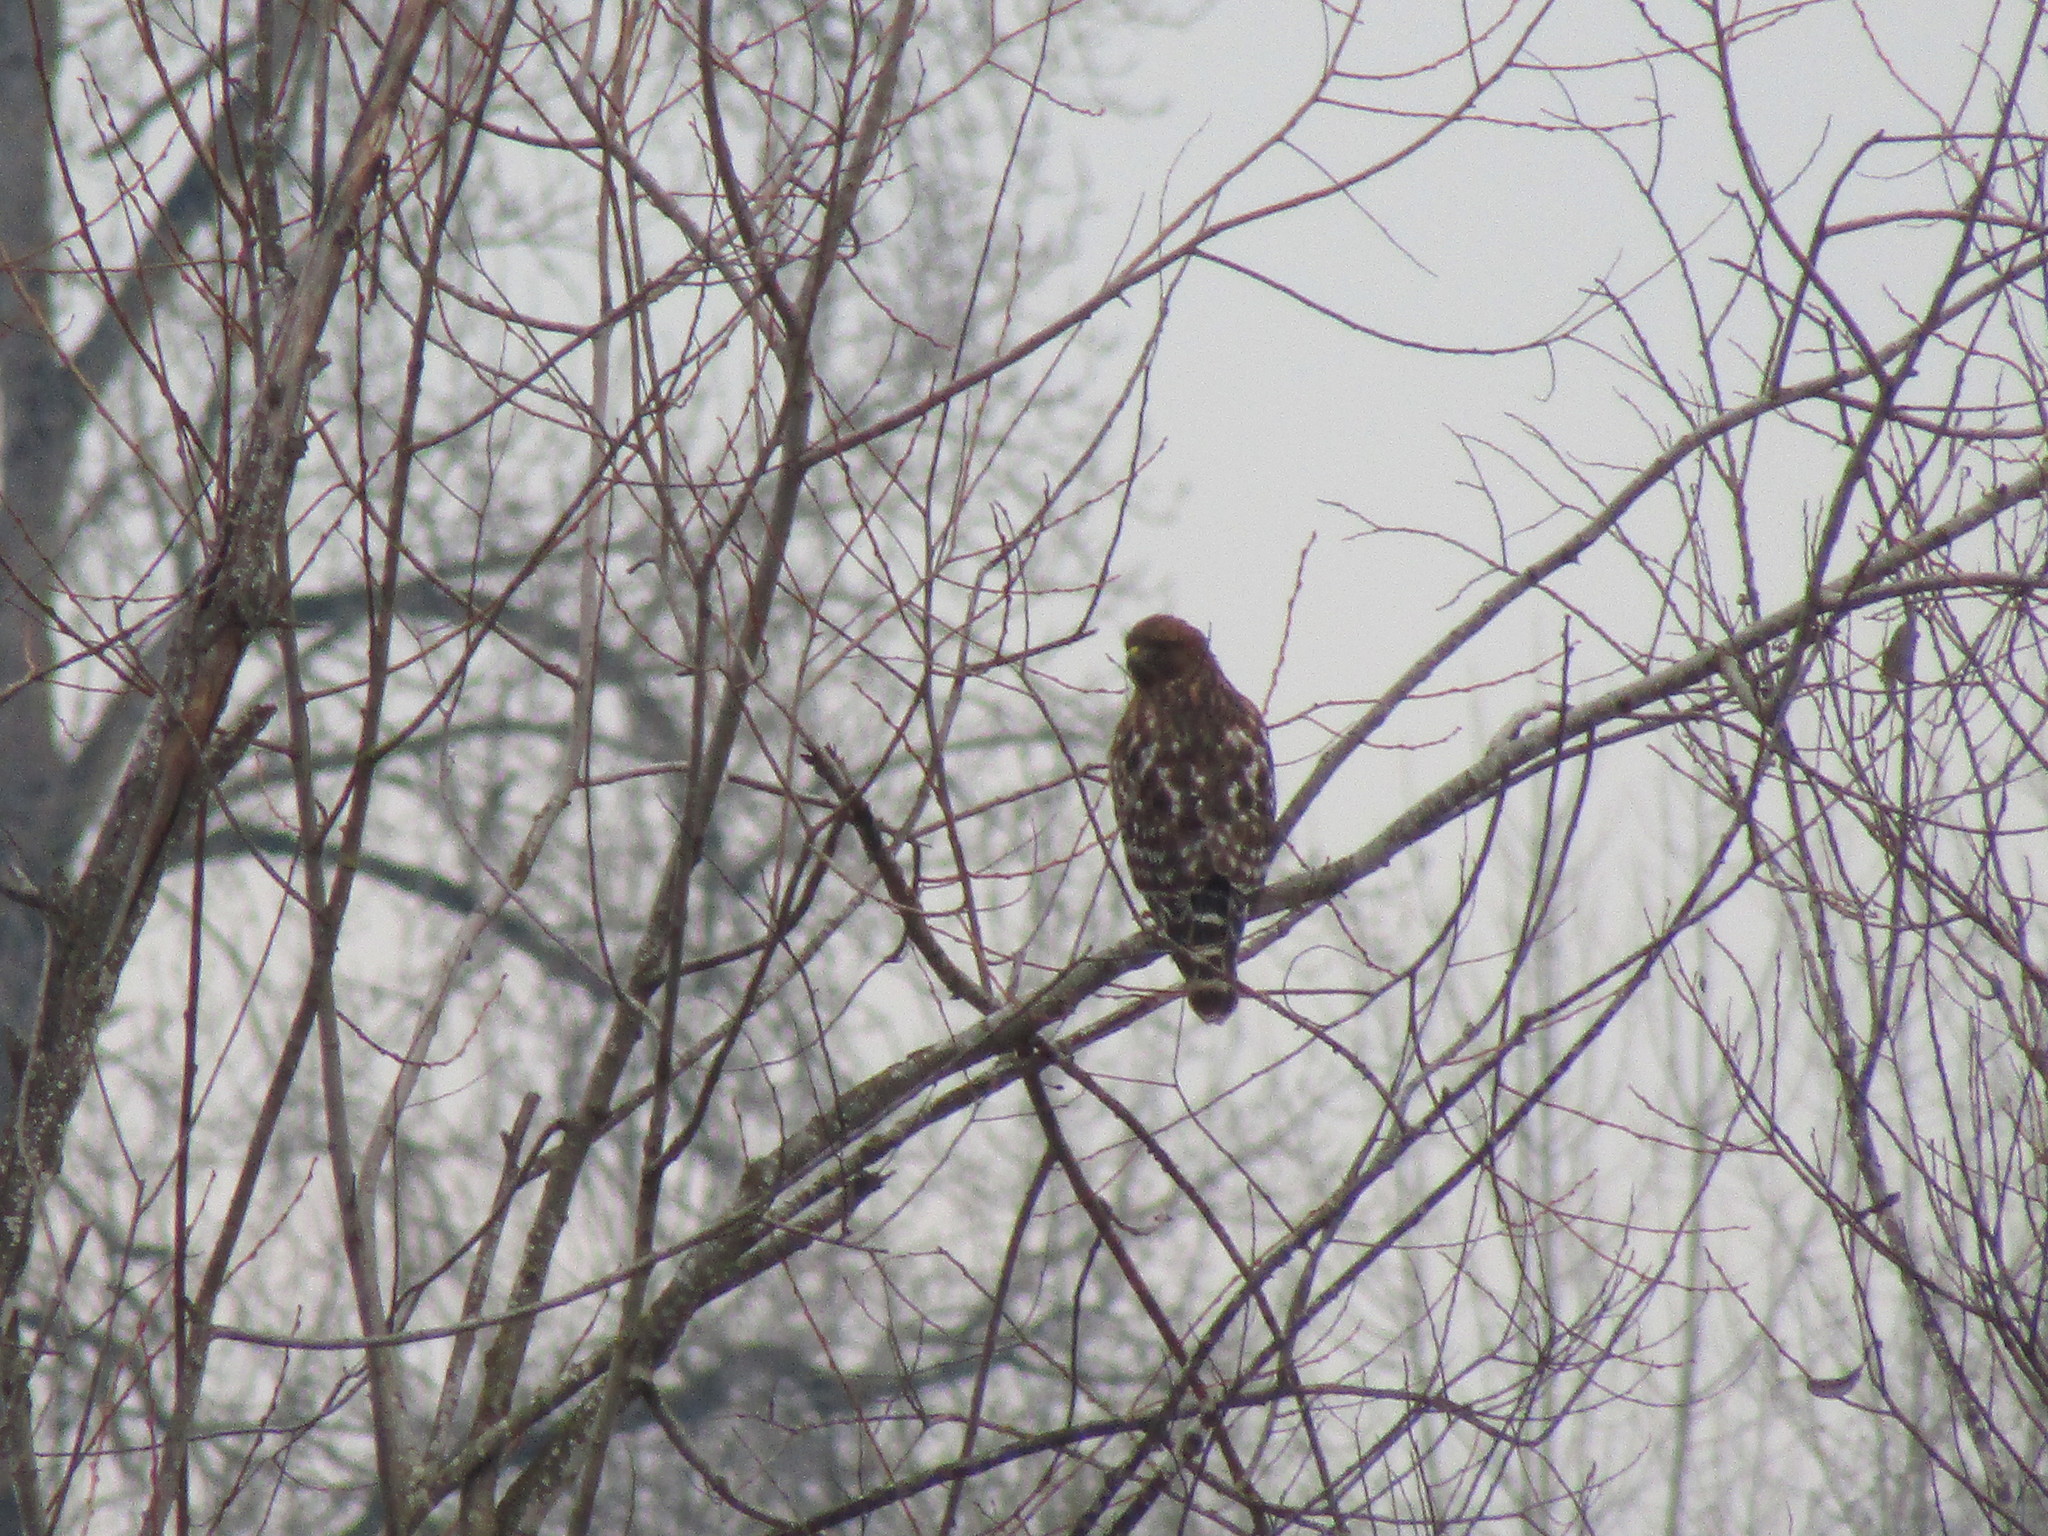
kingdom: Animalia
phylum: Chordata
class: Aves
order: Accipitriformes
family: Accipitridae
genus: Buteo
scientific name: Buteo lineatus
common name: Red-shouldered hawk
